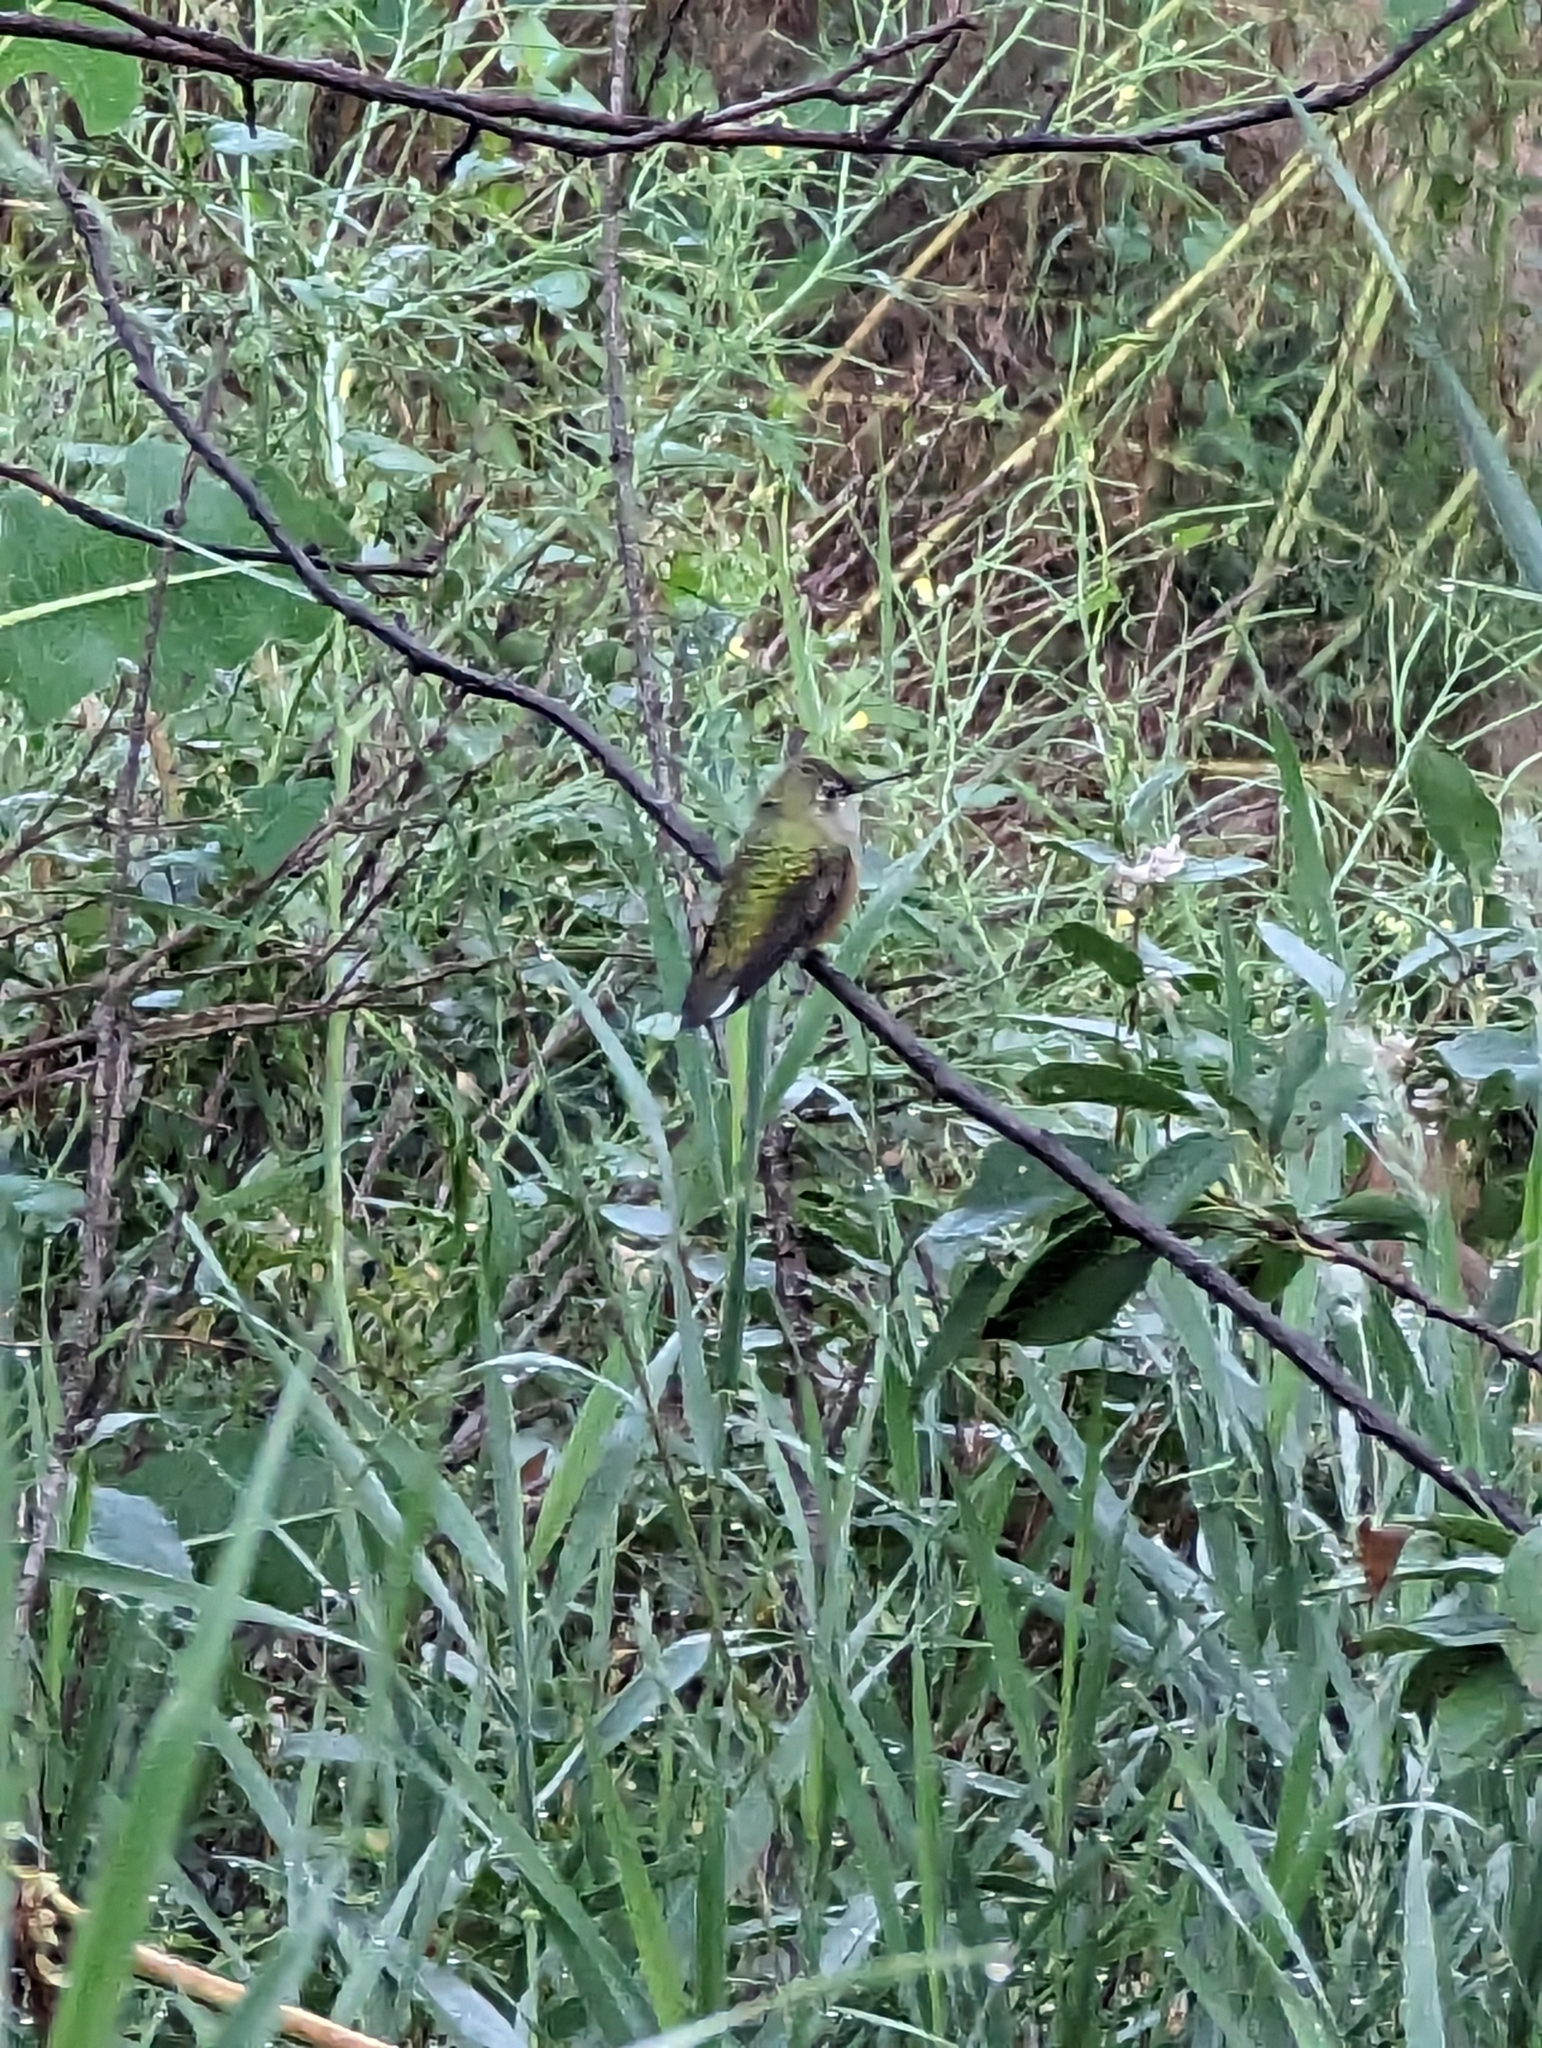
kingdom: Animalia
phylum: Chordata
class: Aves
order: Apodiformes
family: Trochilidae
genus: Selasphorus
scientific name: Selasphorus platycercus
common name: Broad-tailed hummingbird
